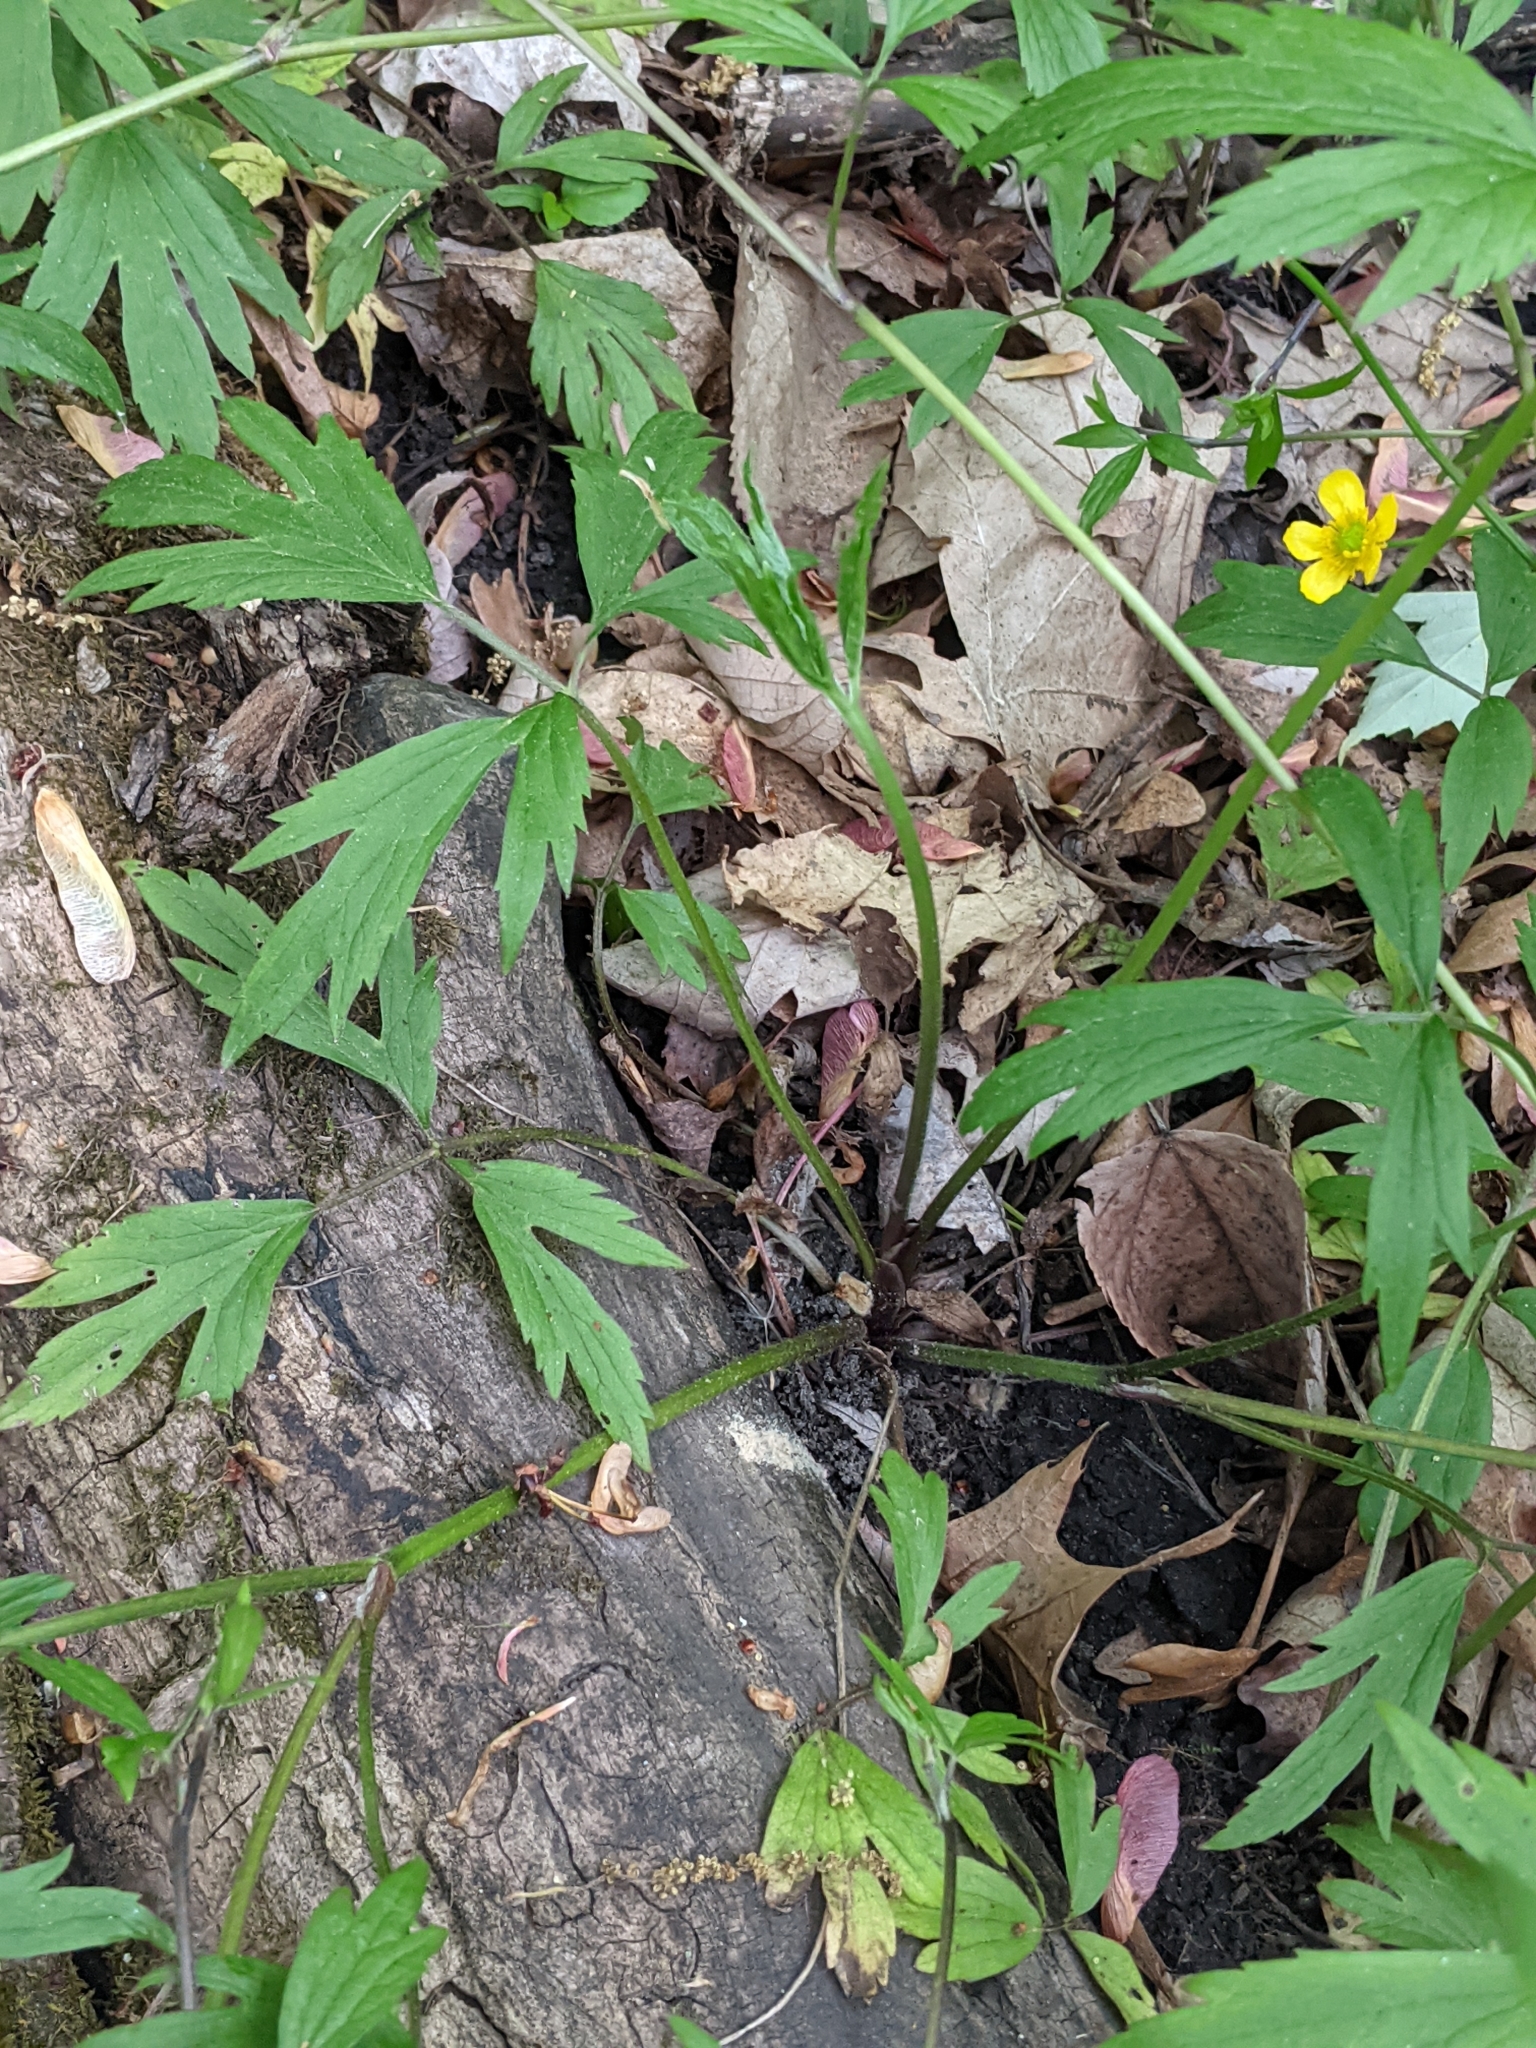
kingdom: Plantae
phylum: Tracheophyta
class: Magnoliopsida
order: Ranunculales
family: Ranunculaceae
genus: Ranunculus
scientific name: Ranunculus hispidus
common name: Bristly buttercup
